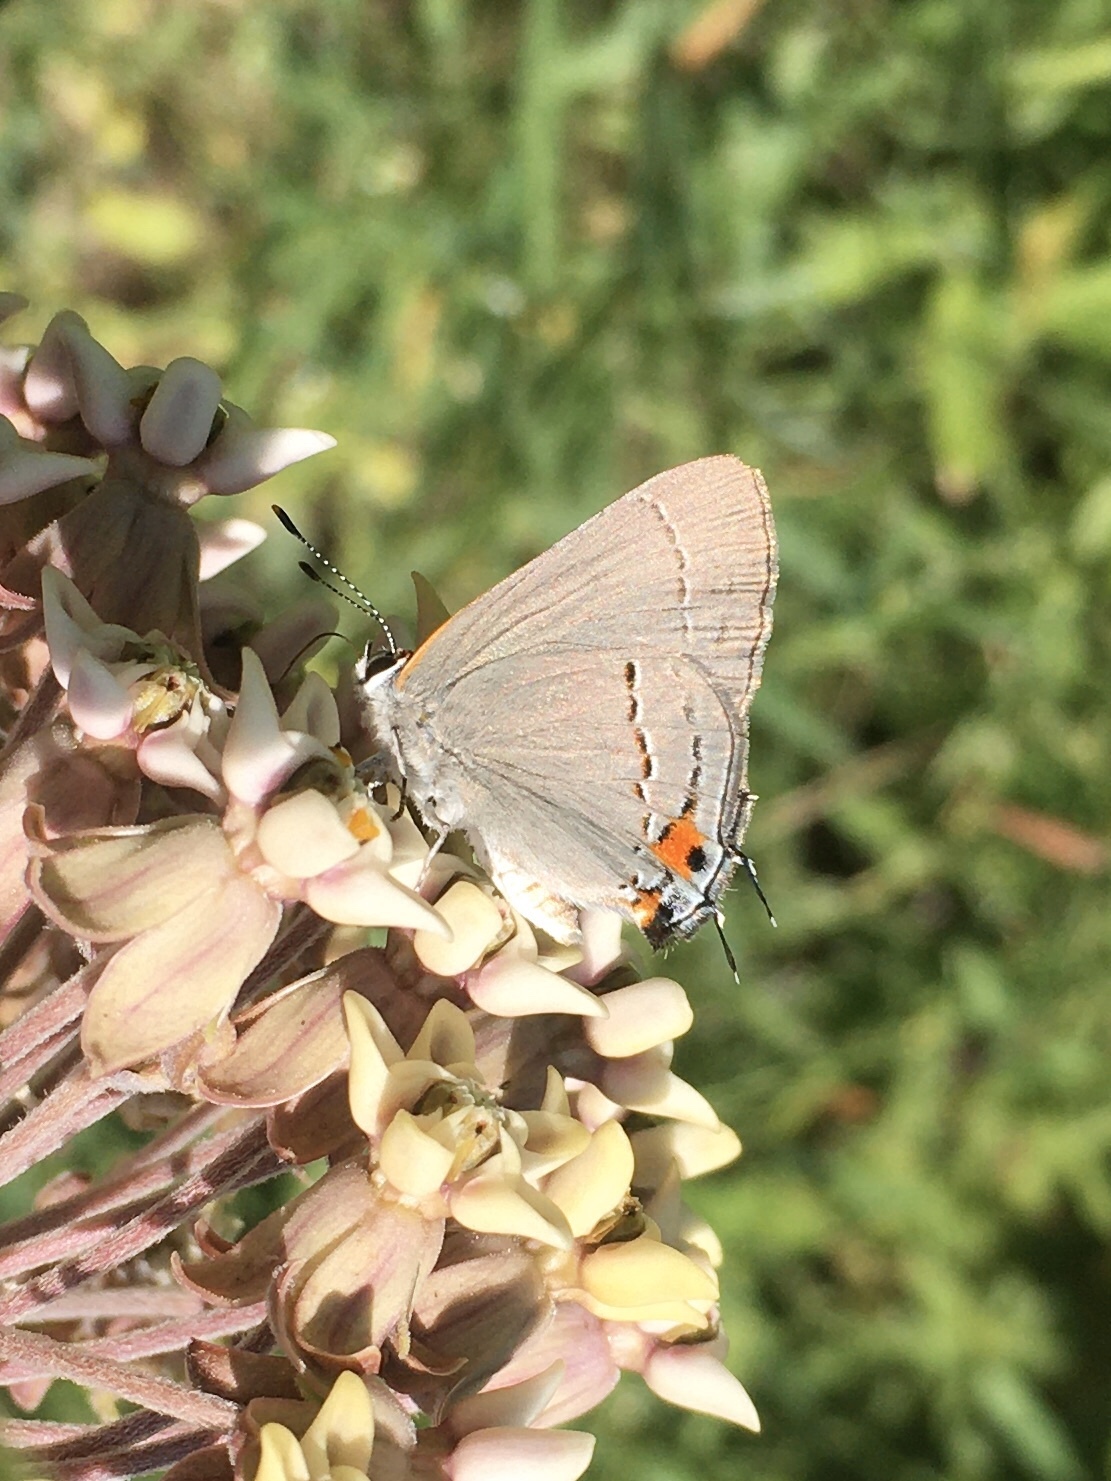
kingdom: Animalia
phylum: Arthropoda
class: Insecta
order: Lepidoptera
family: Lycaenidae
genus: Strymon
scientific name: Strymon melinus
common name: Gray hairstreak
